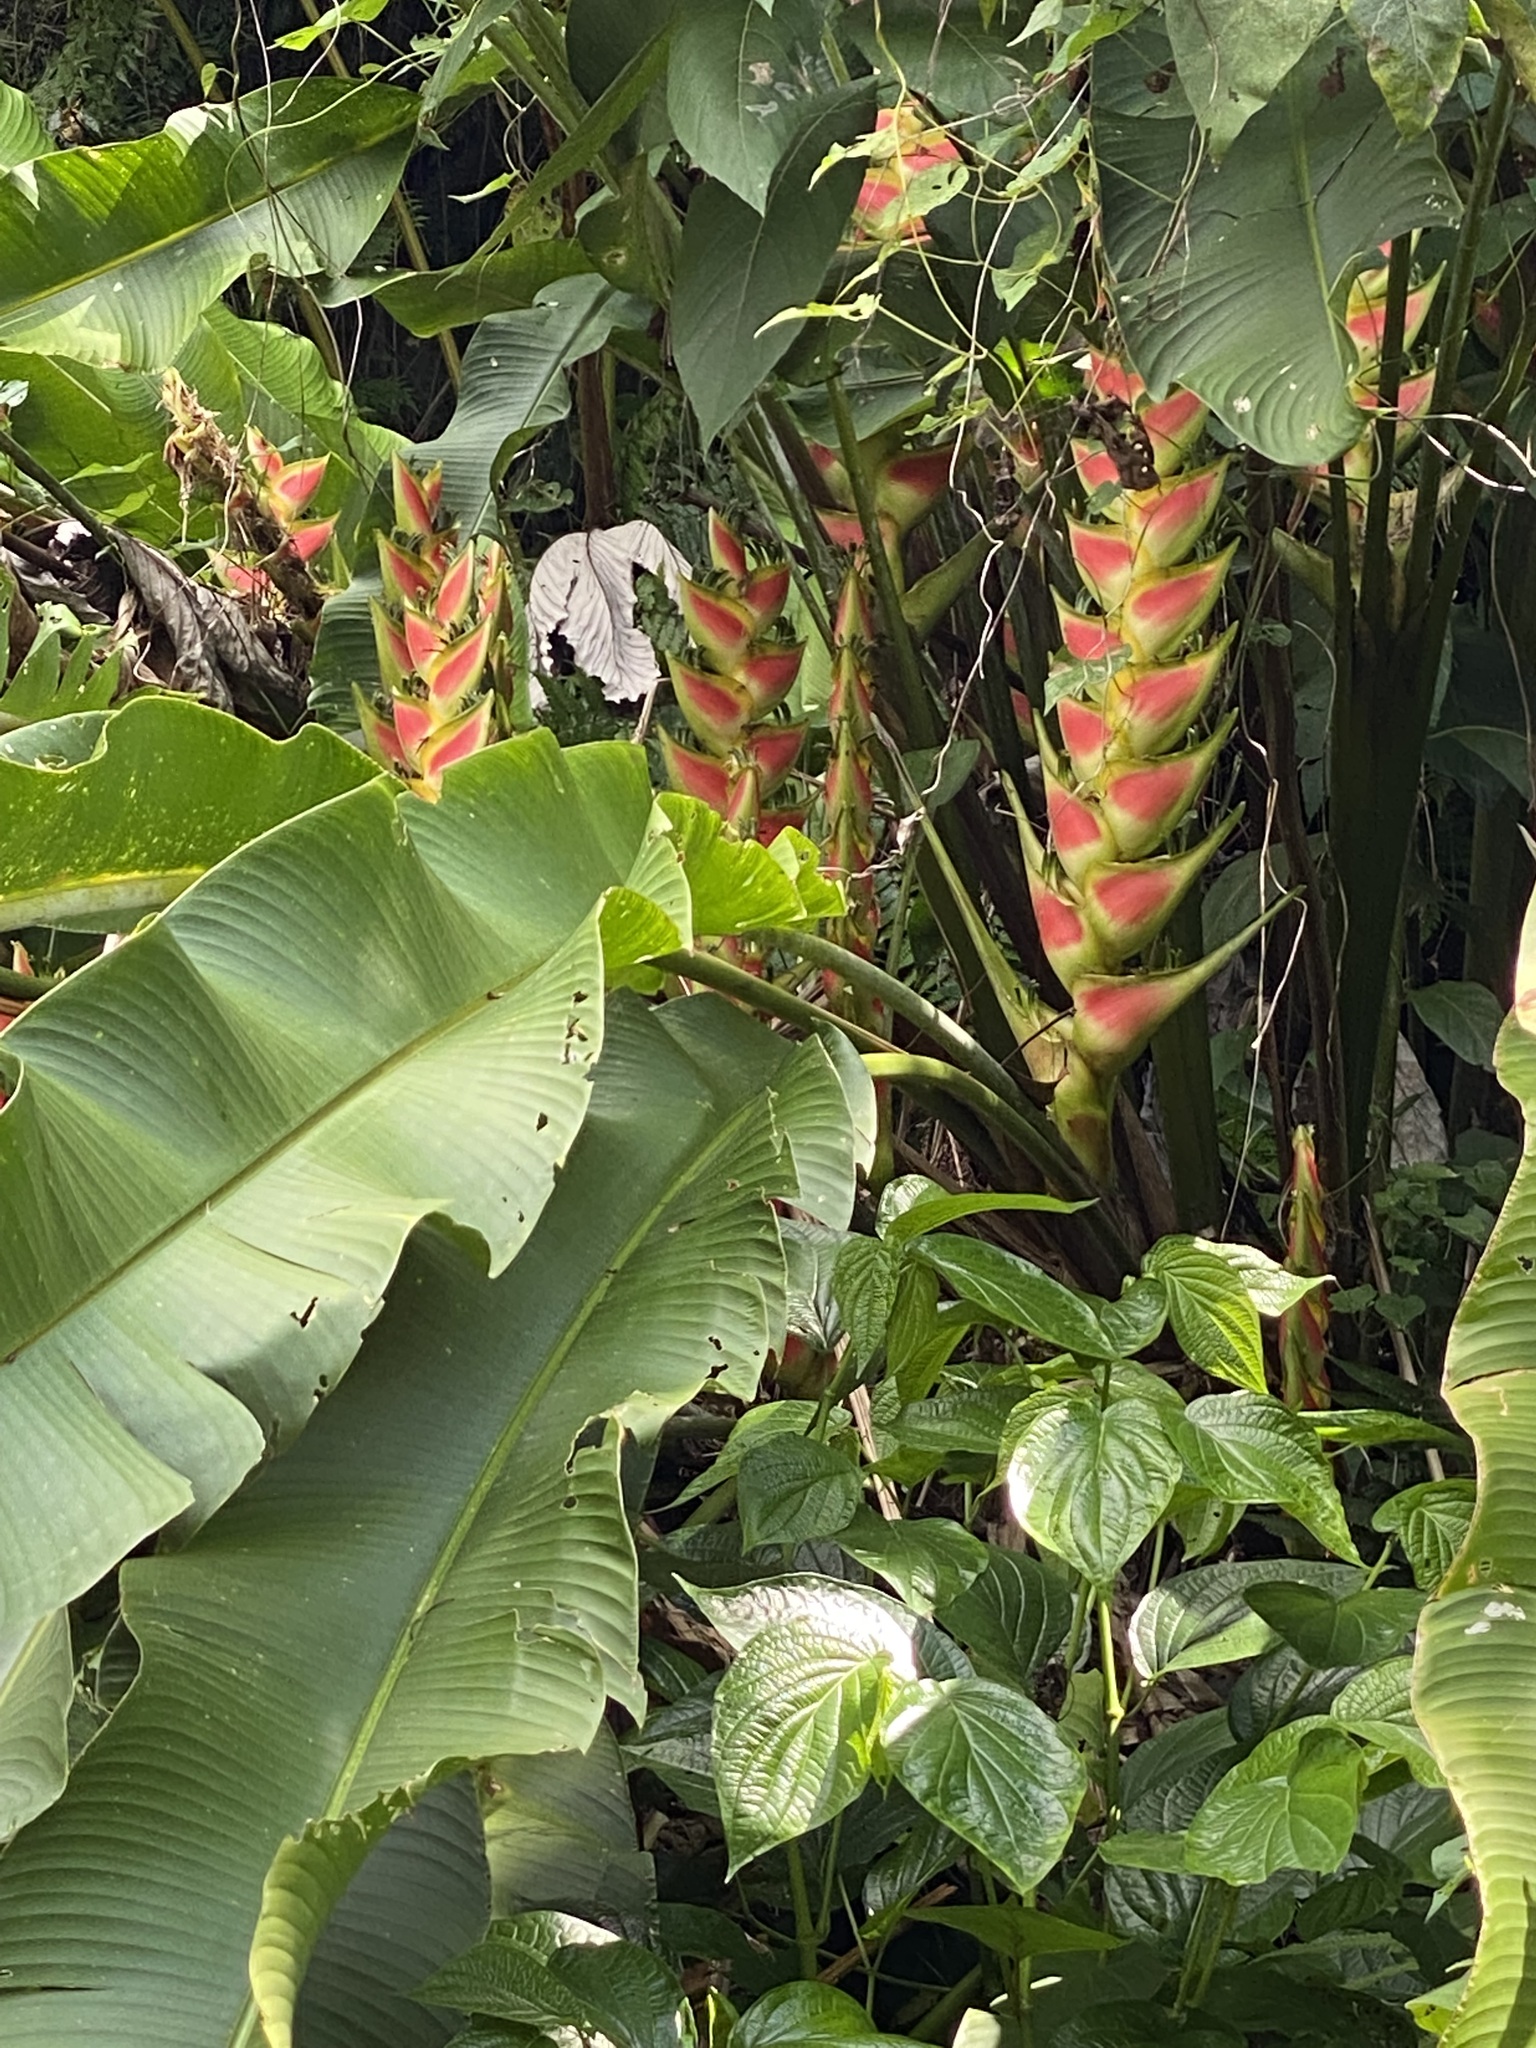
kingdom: Plantae
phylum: Tracheophyta
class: Liliopsida
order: Zingiberales
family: Heliconiaceae
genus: Heliconia
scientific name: Heliconia wagneriana
